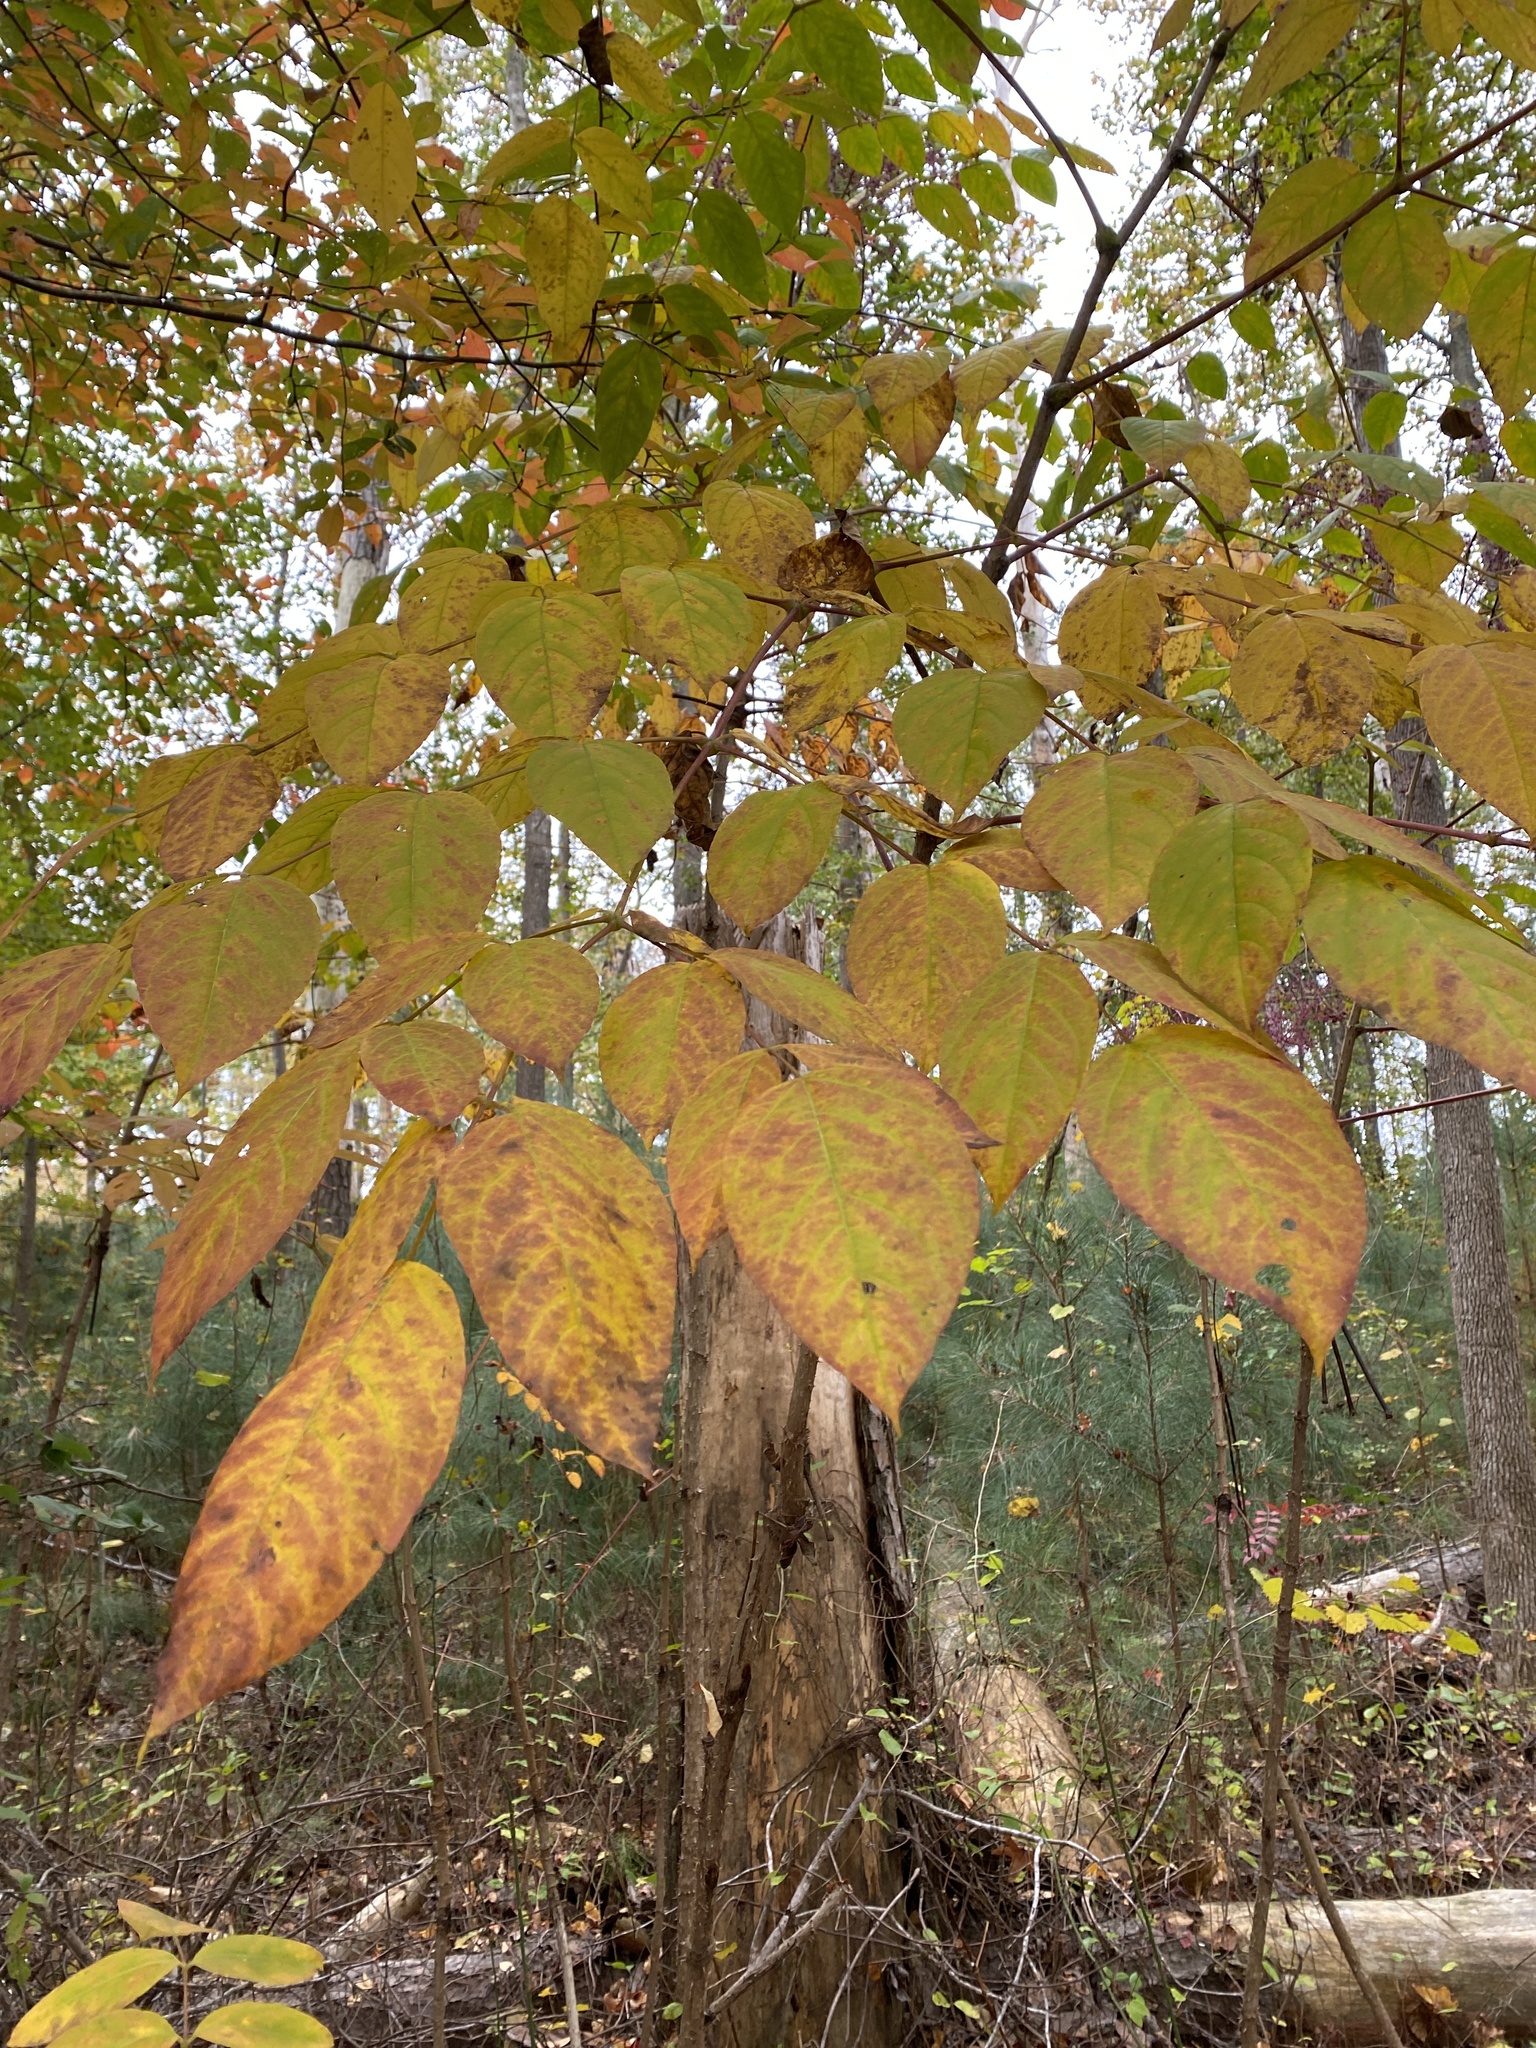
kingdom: Plantae
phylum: Tracheophyta
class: Magnoliopsida
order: Apiales
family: Araliaceae
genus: Aralia
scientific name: Aralia spinosa
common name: Hercules'-club
